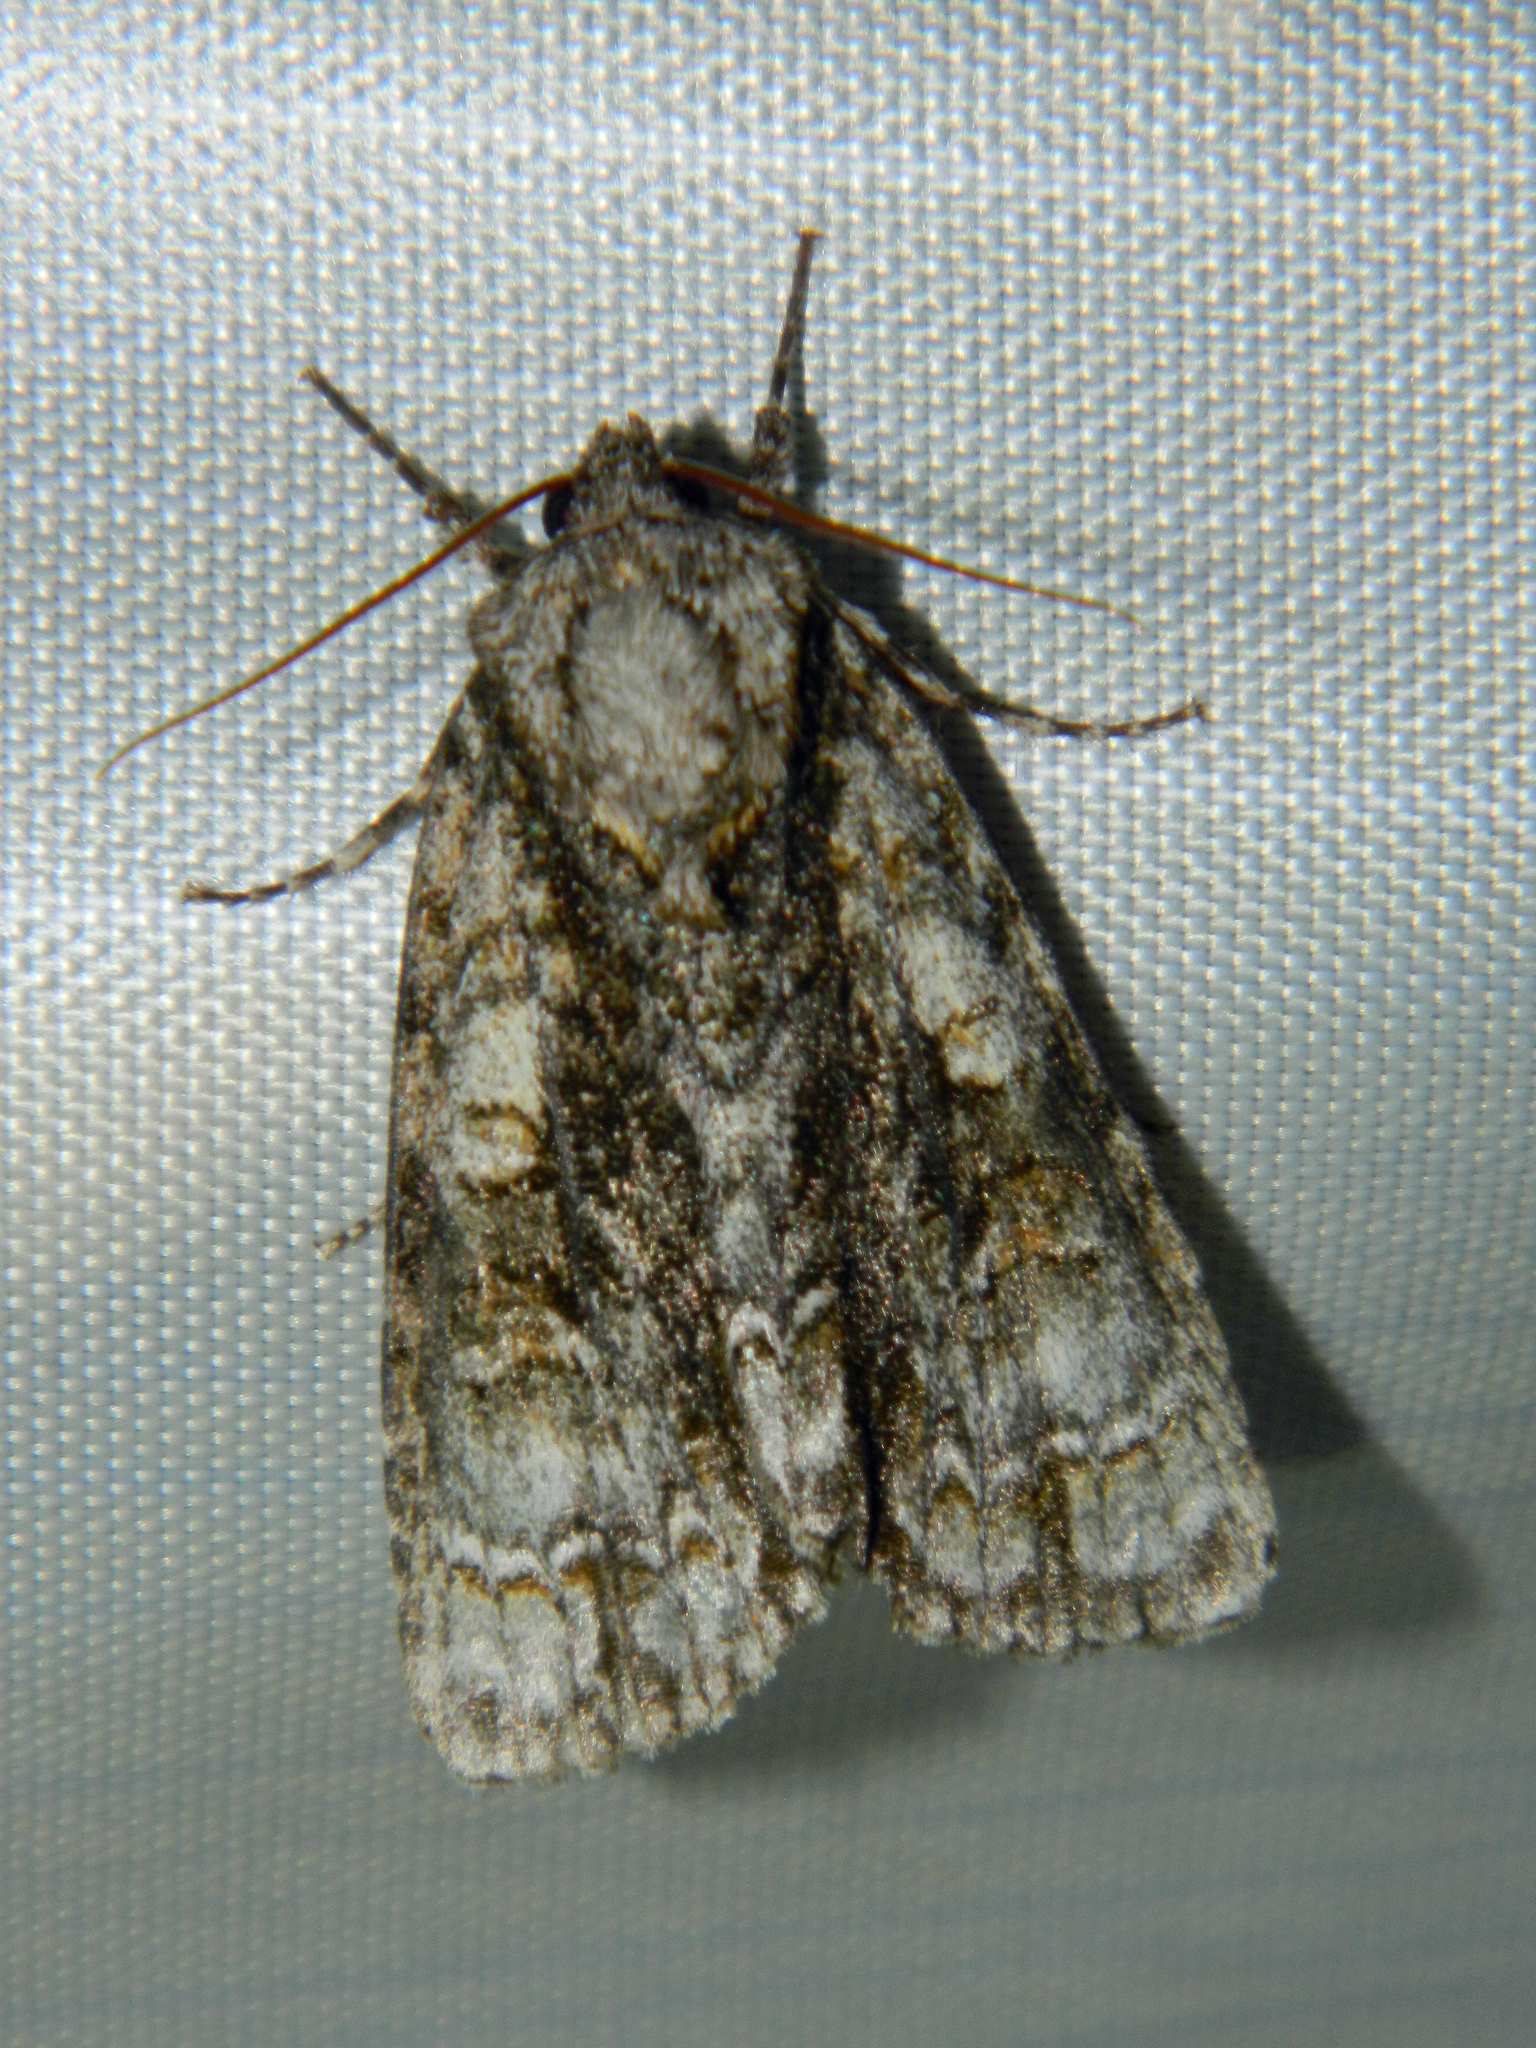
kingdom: Animalia
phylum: Arthropoda
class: Insecta
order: Lepidoptera
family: Noctuidae
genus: Acronicta
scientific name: Acronicta superans
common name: Splendid dagger
